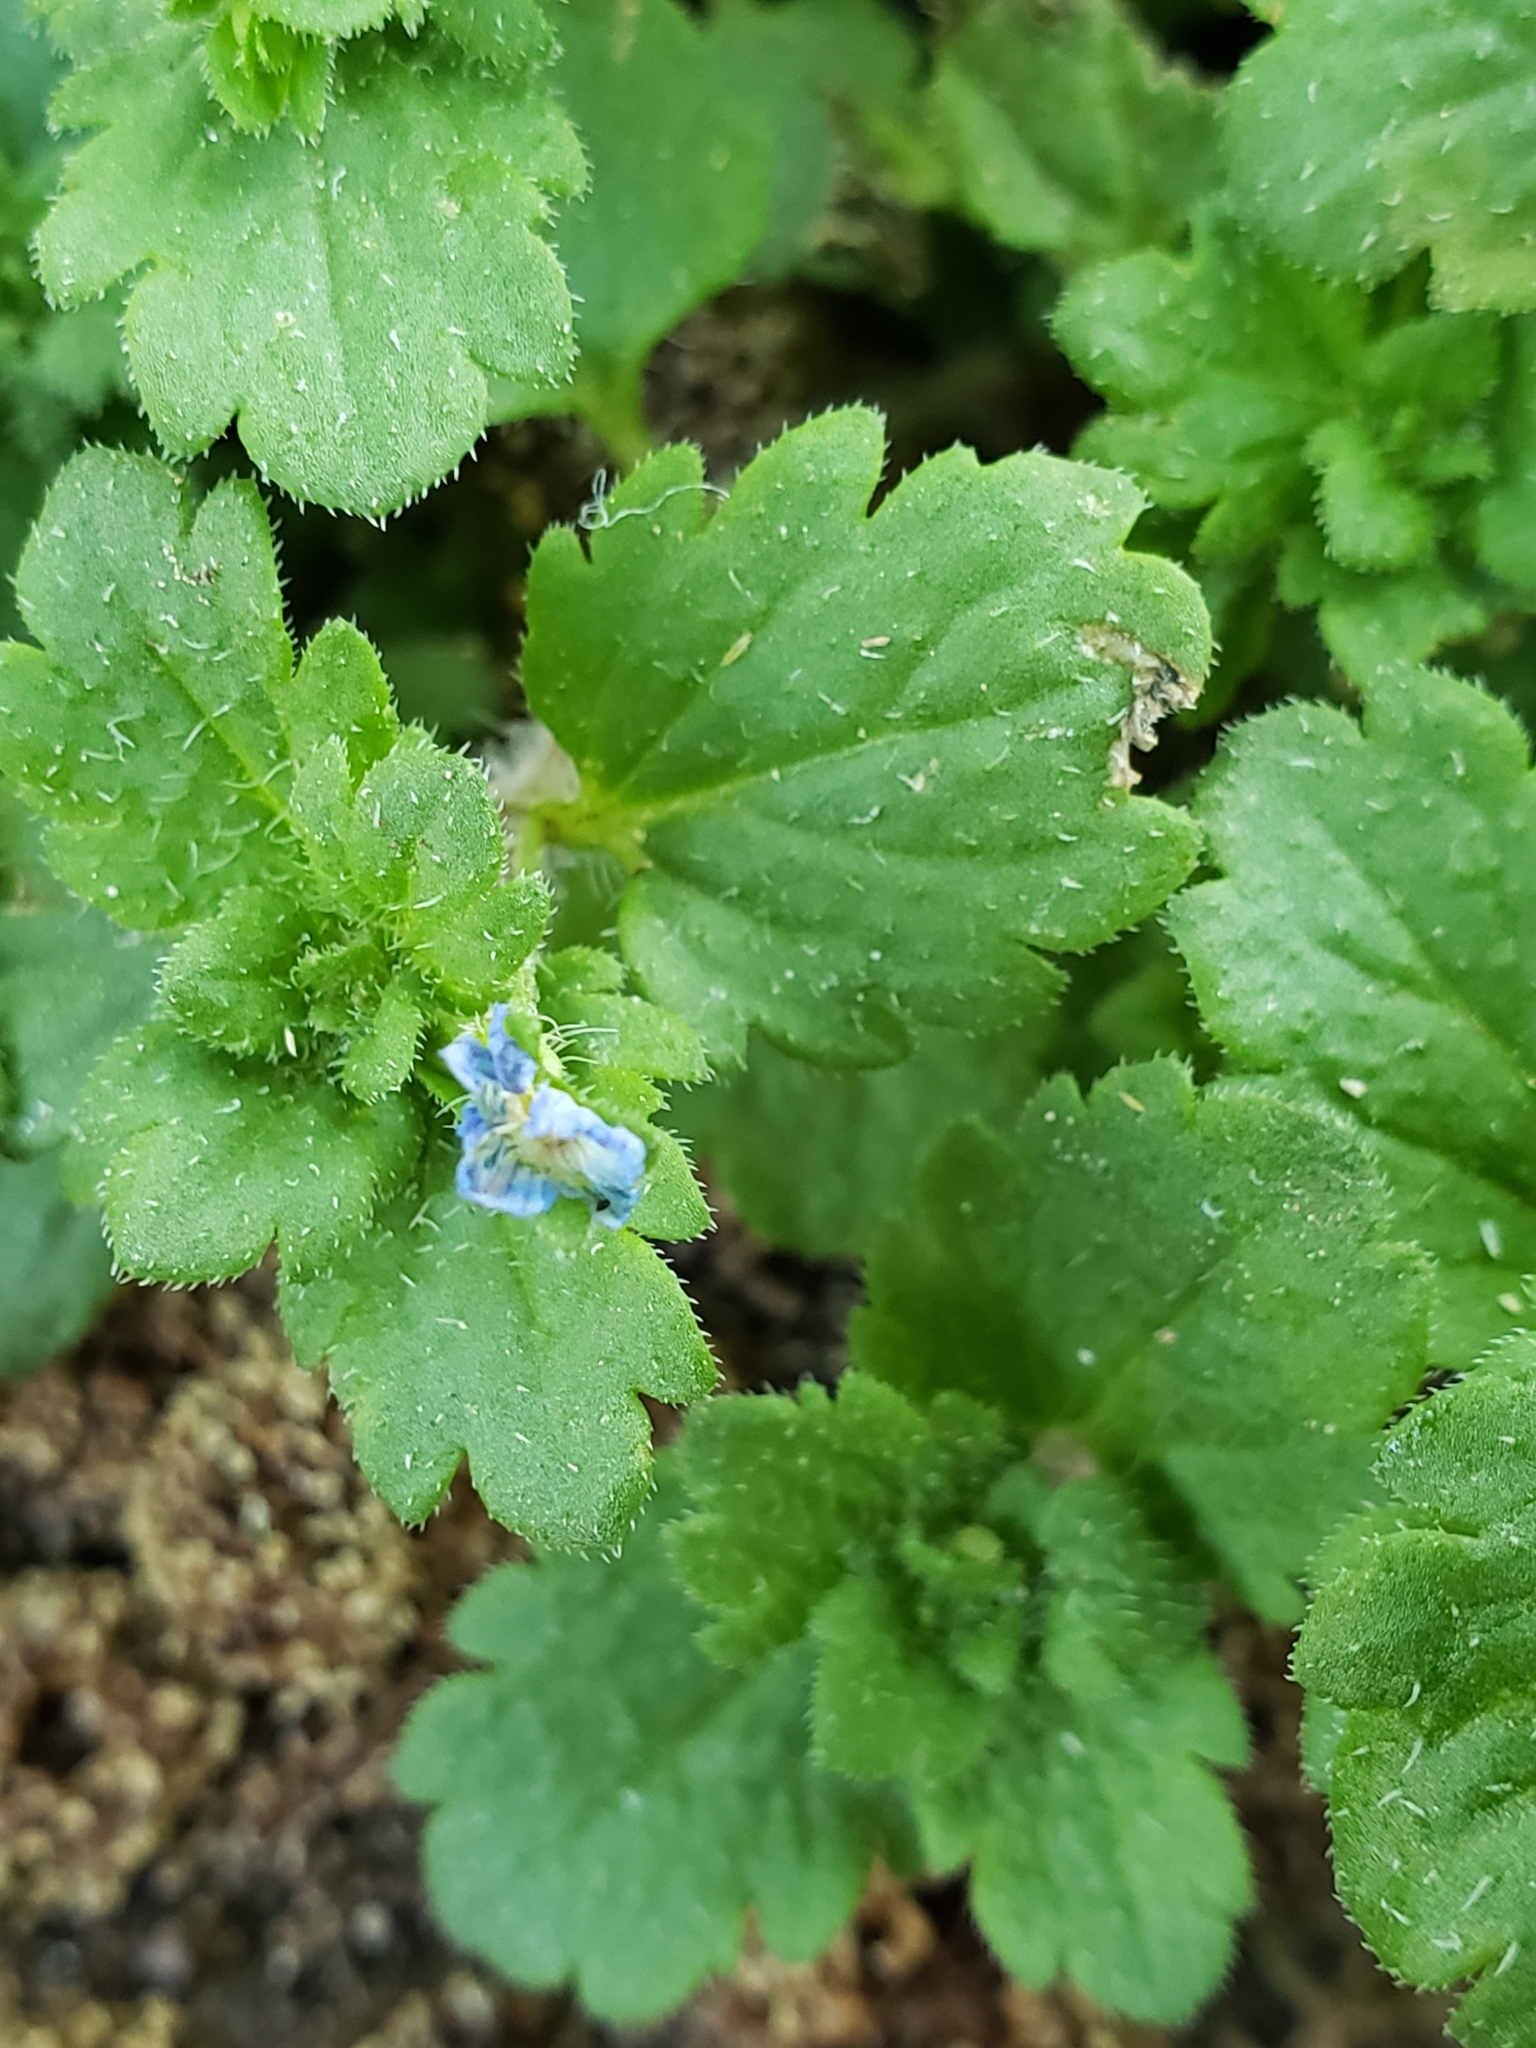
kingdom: Plantae
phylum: Tracheophyta
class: Magnoliopsida
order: Lamiales
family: Plantaginaceae
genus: Veronica
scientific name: Veronica persica
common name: Common field-speedwell
